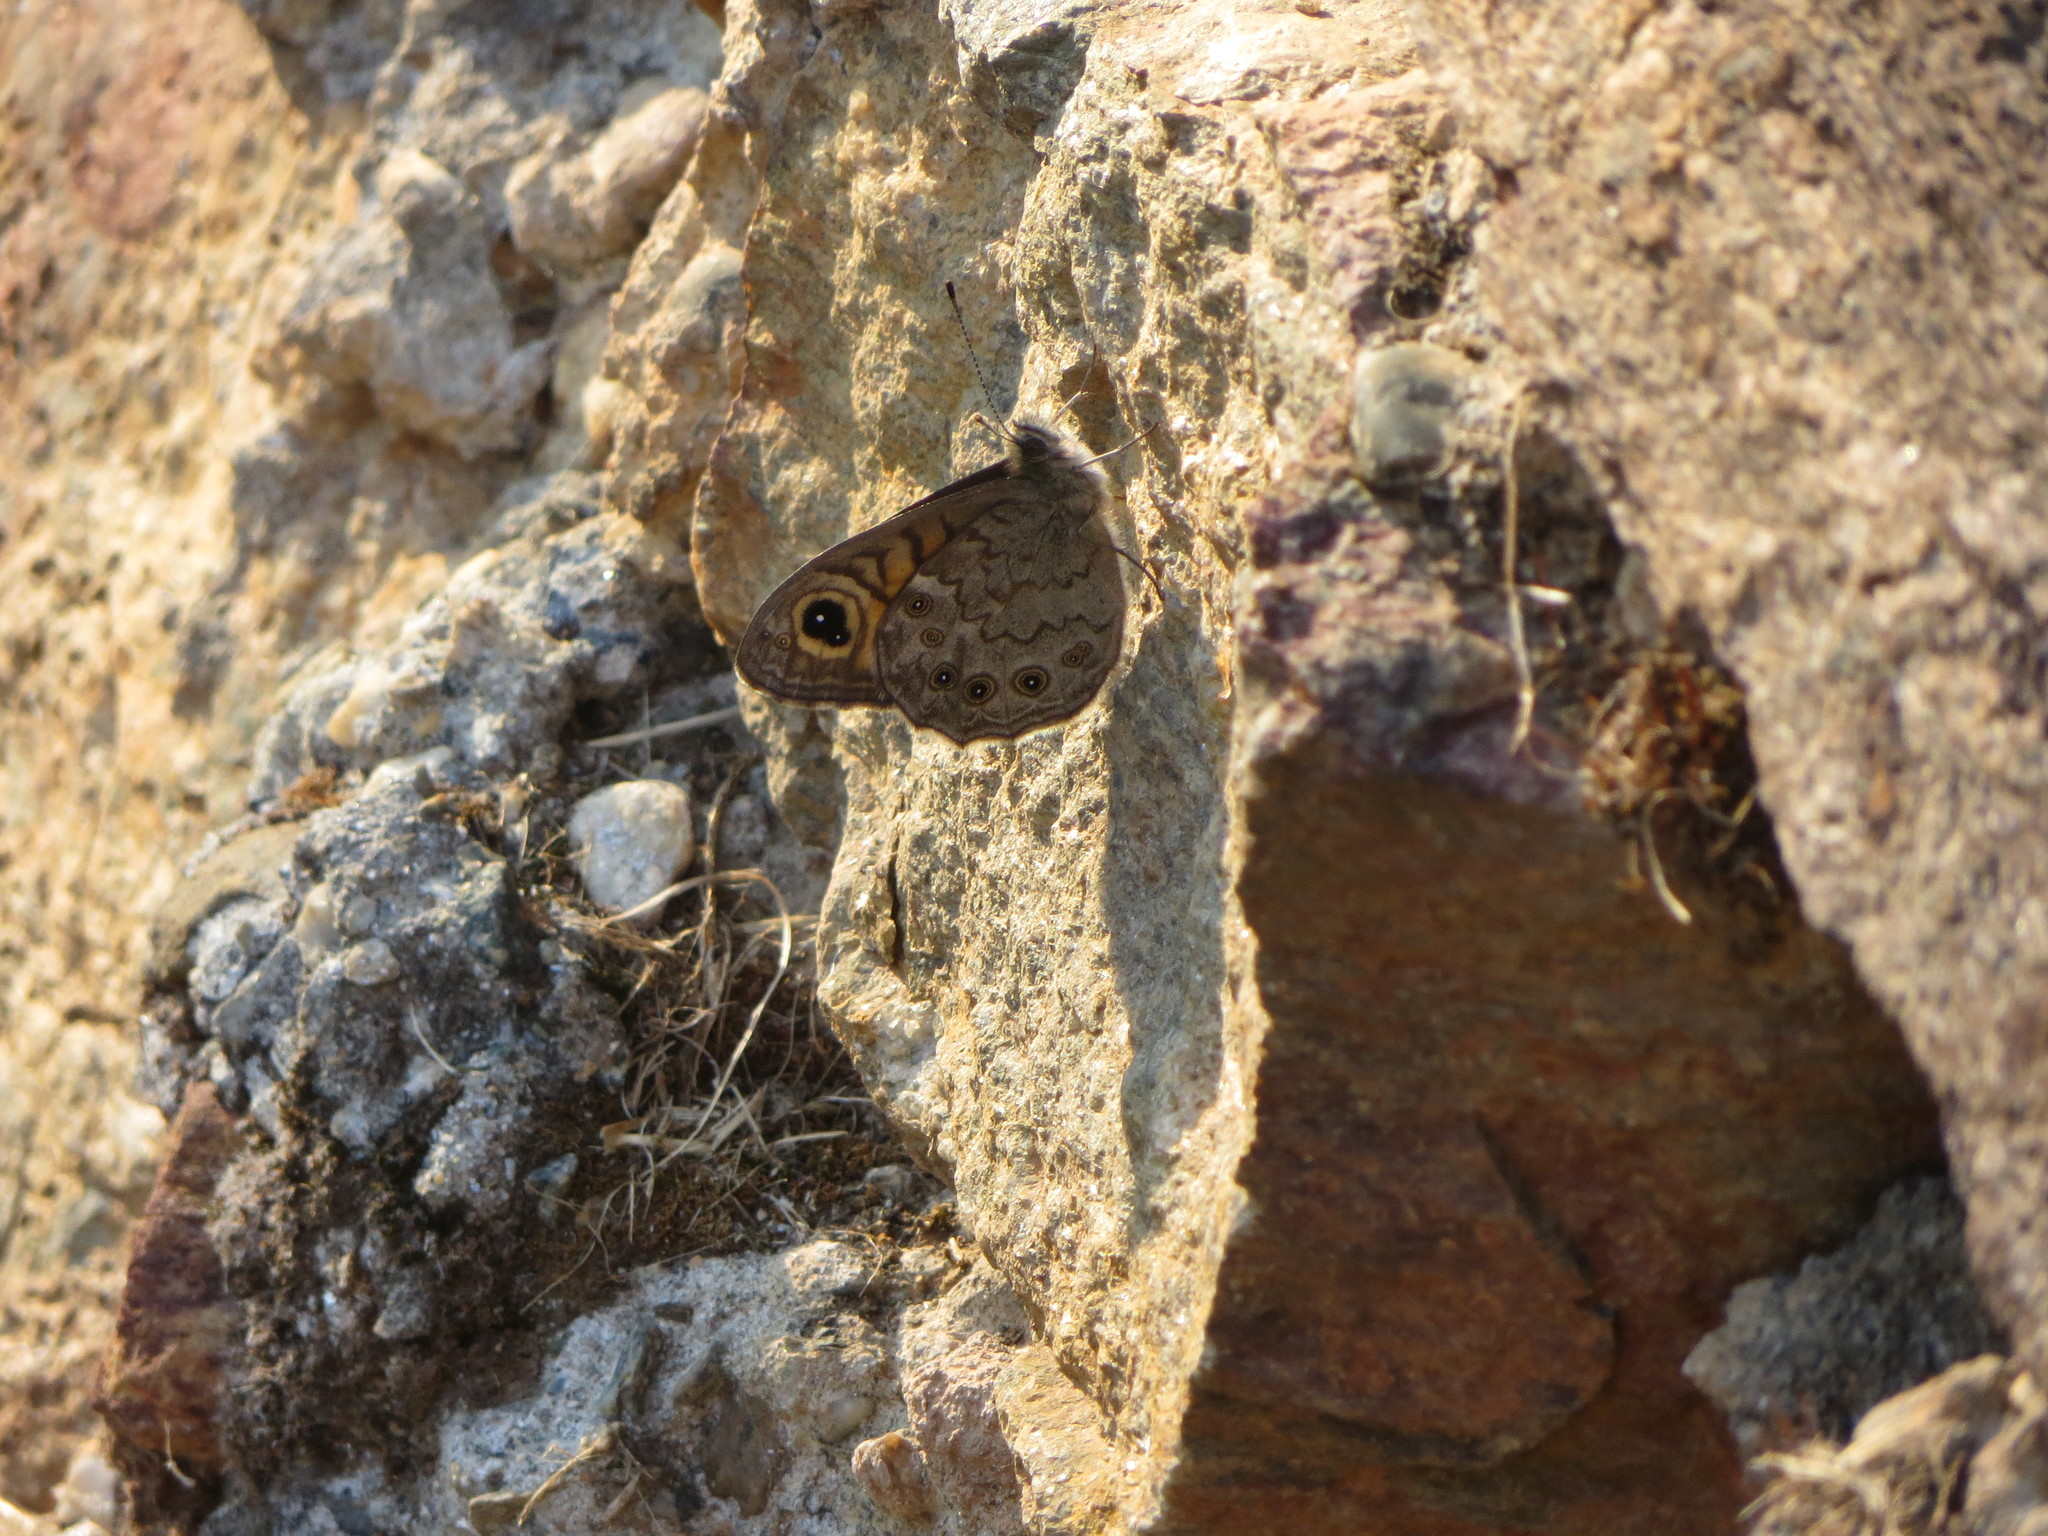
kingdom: Animalia
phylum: Arthropoda
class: Insecta
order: Lepidoptera
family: Nymphalidae
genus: Pararge
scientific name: Pararge Lasiommata maera
